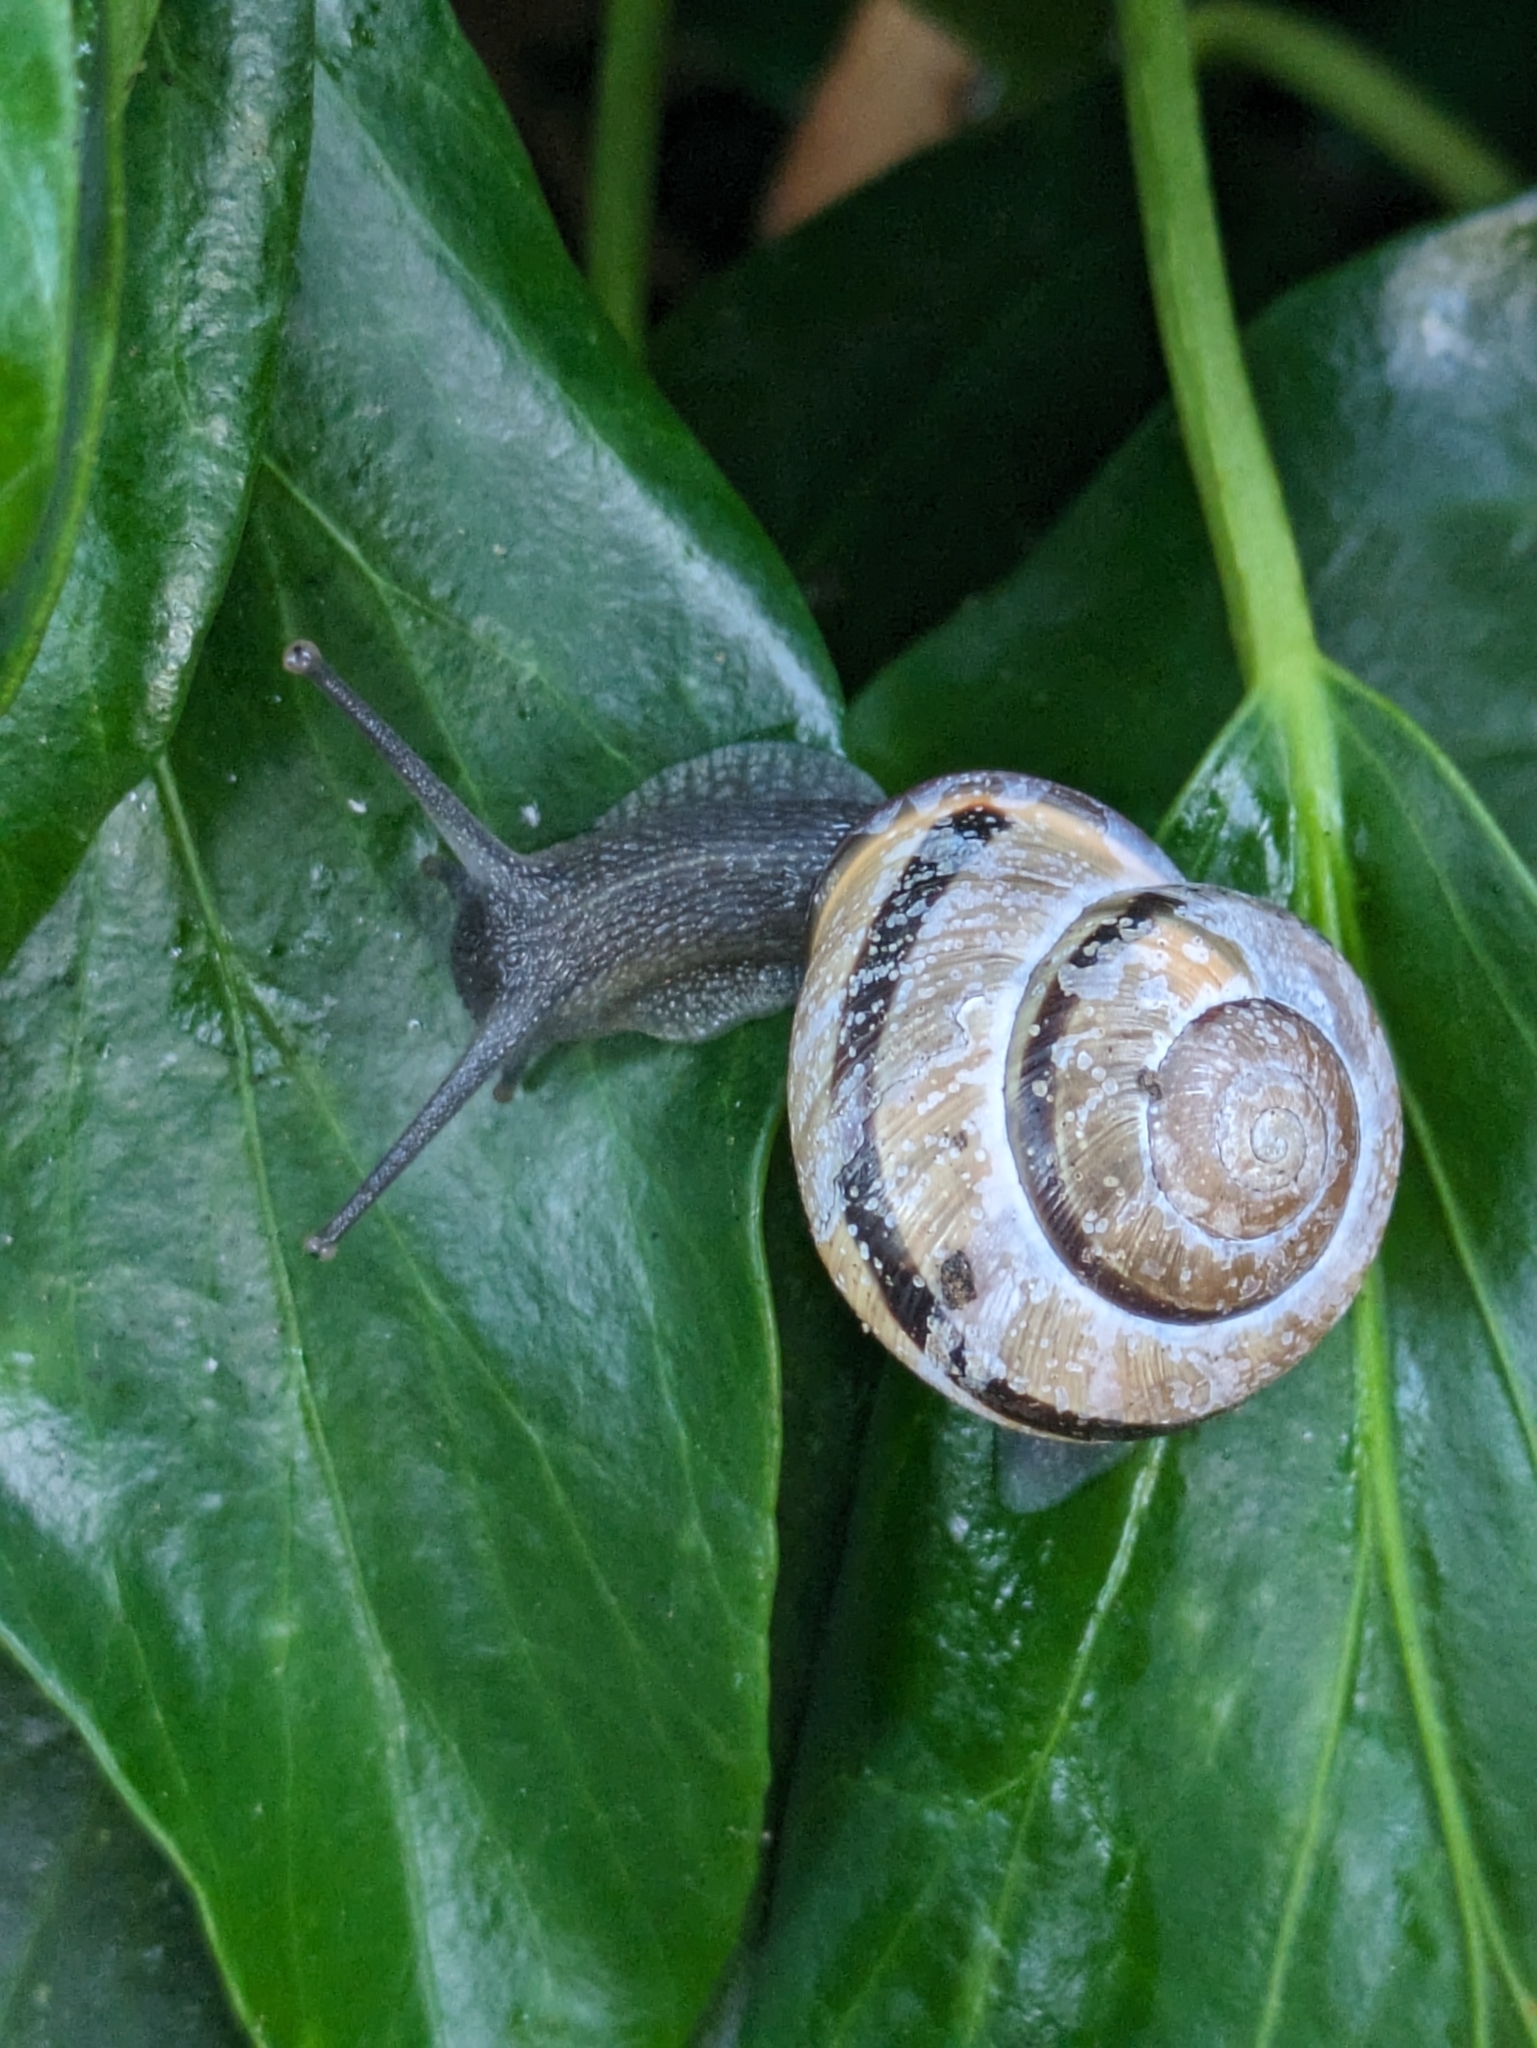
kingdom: Animalia
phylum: Mollusca
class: Gastropoda
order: Stylommatophora
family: Helicidae
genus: Cepaea
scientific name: Cepaea nemoralis
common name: Grovesnail
